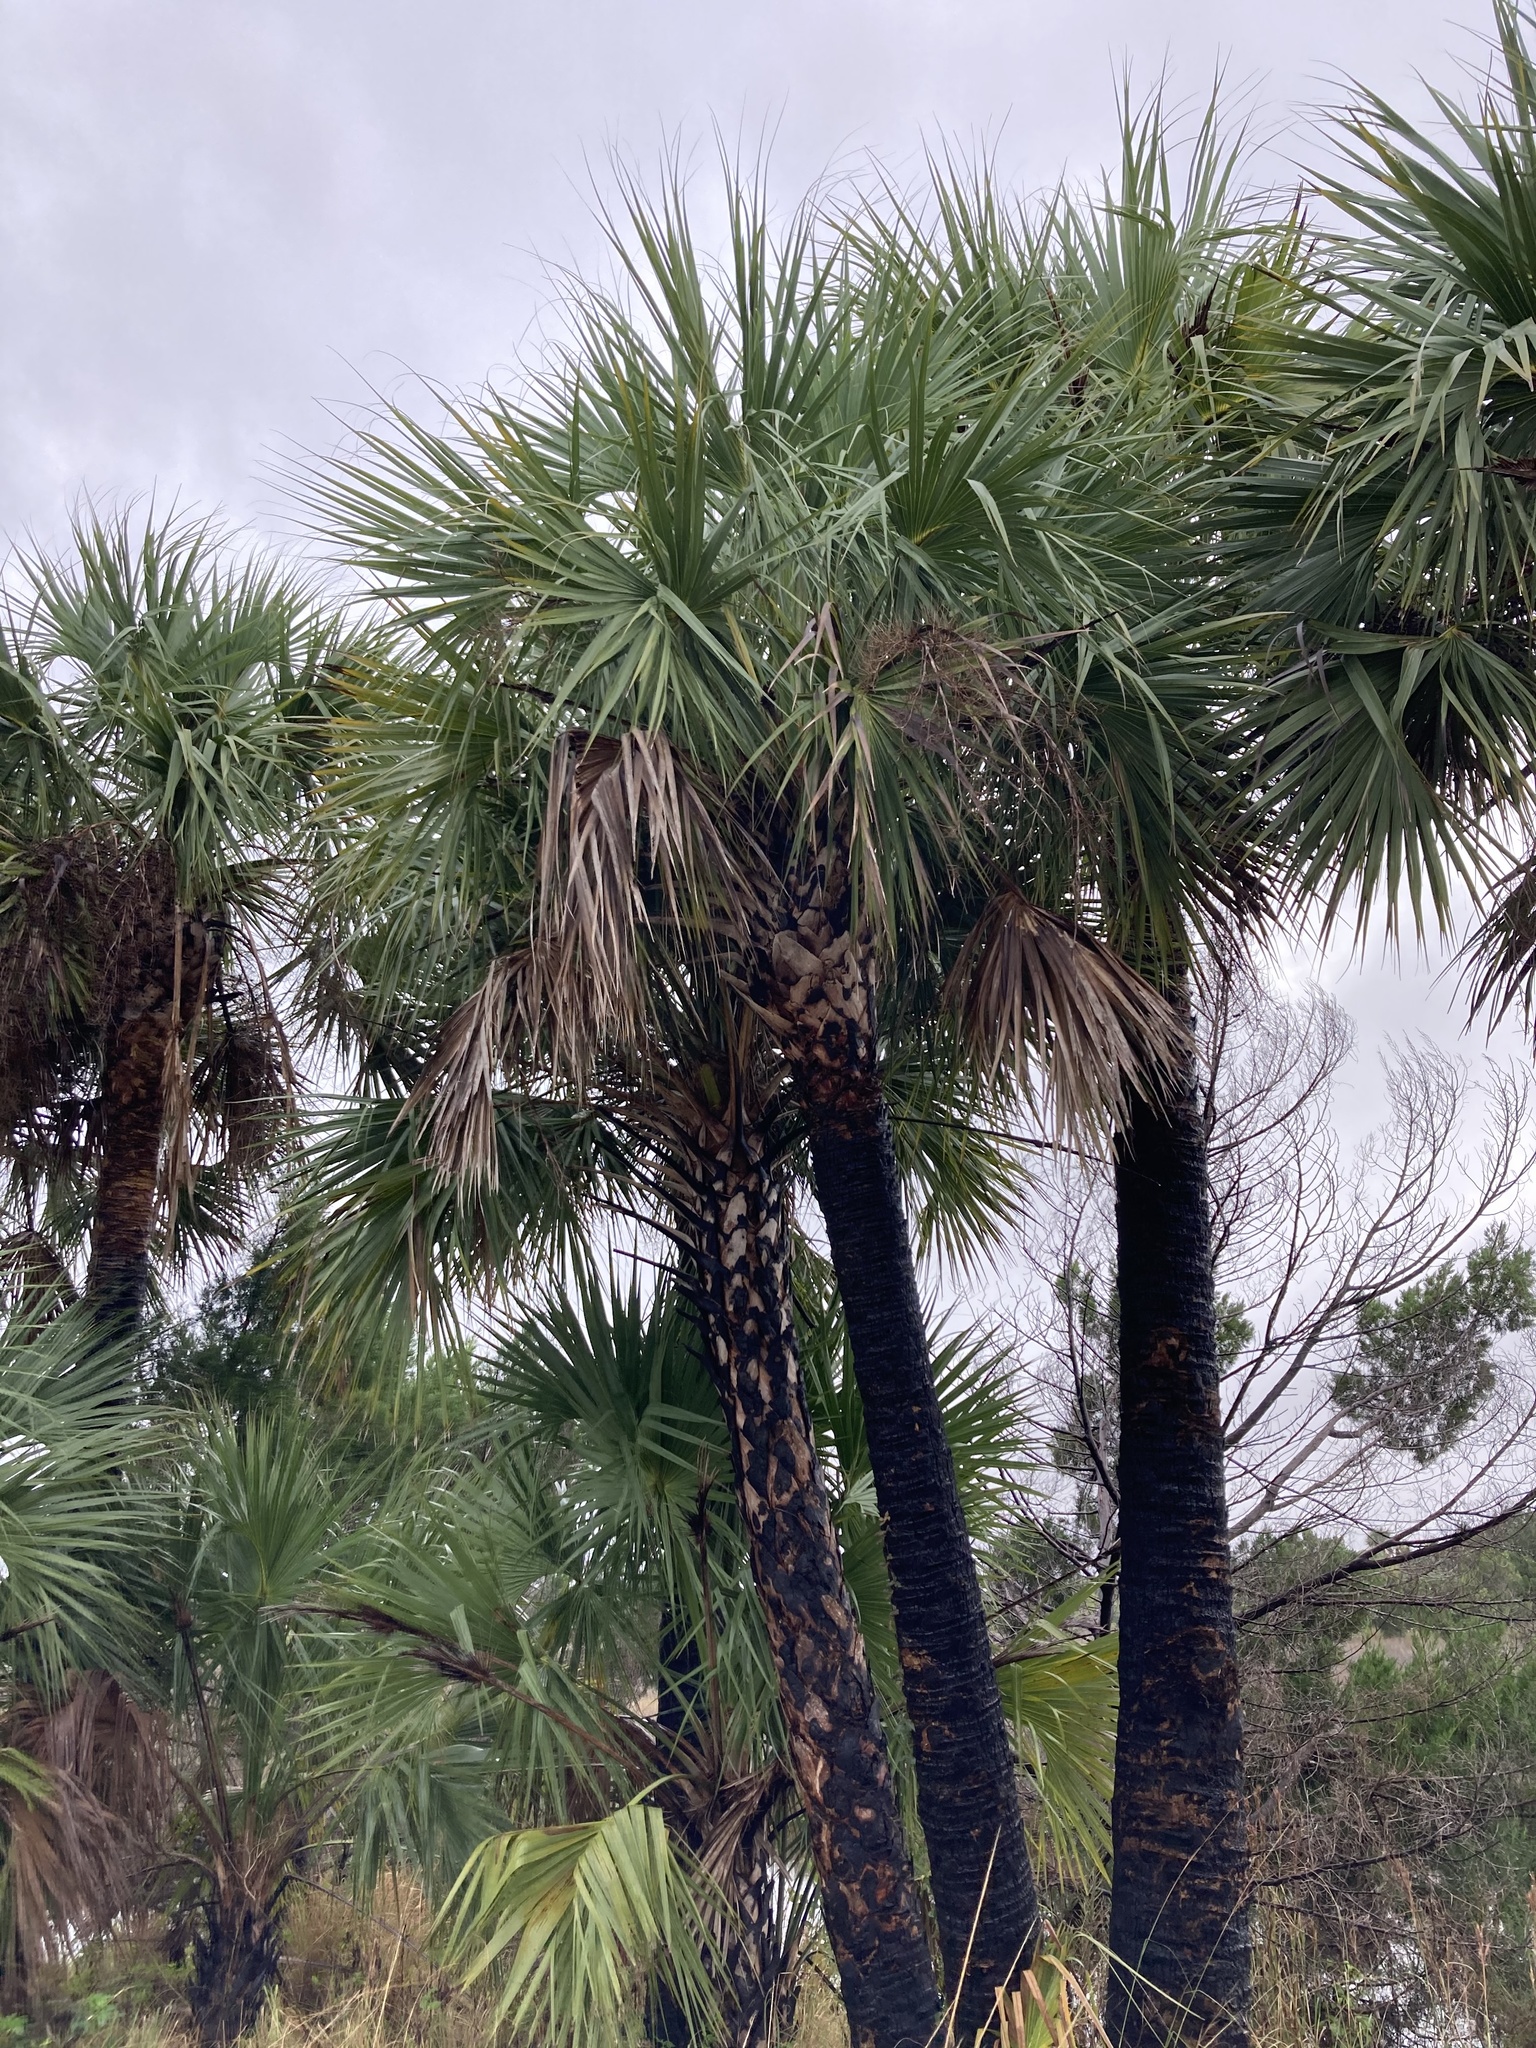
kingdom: Plantae
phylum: Tracheophyta
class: Liliopsida
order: Arecales
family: Arecaceae
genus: Sabal
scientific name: Sabal palmetto
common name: Blue palmetto
